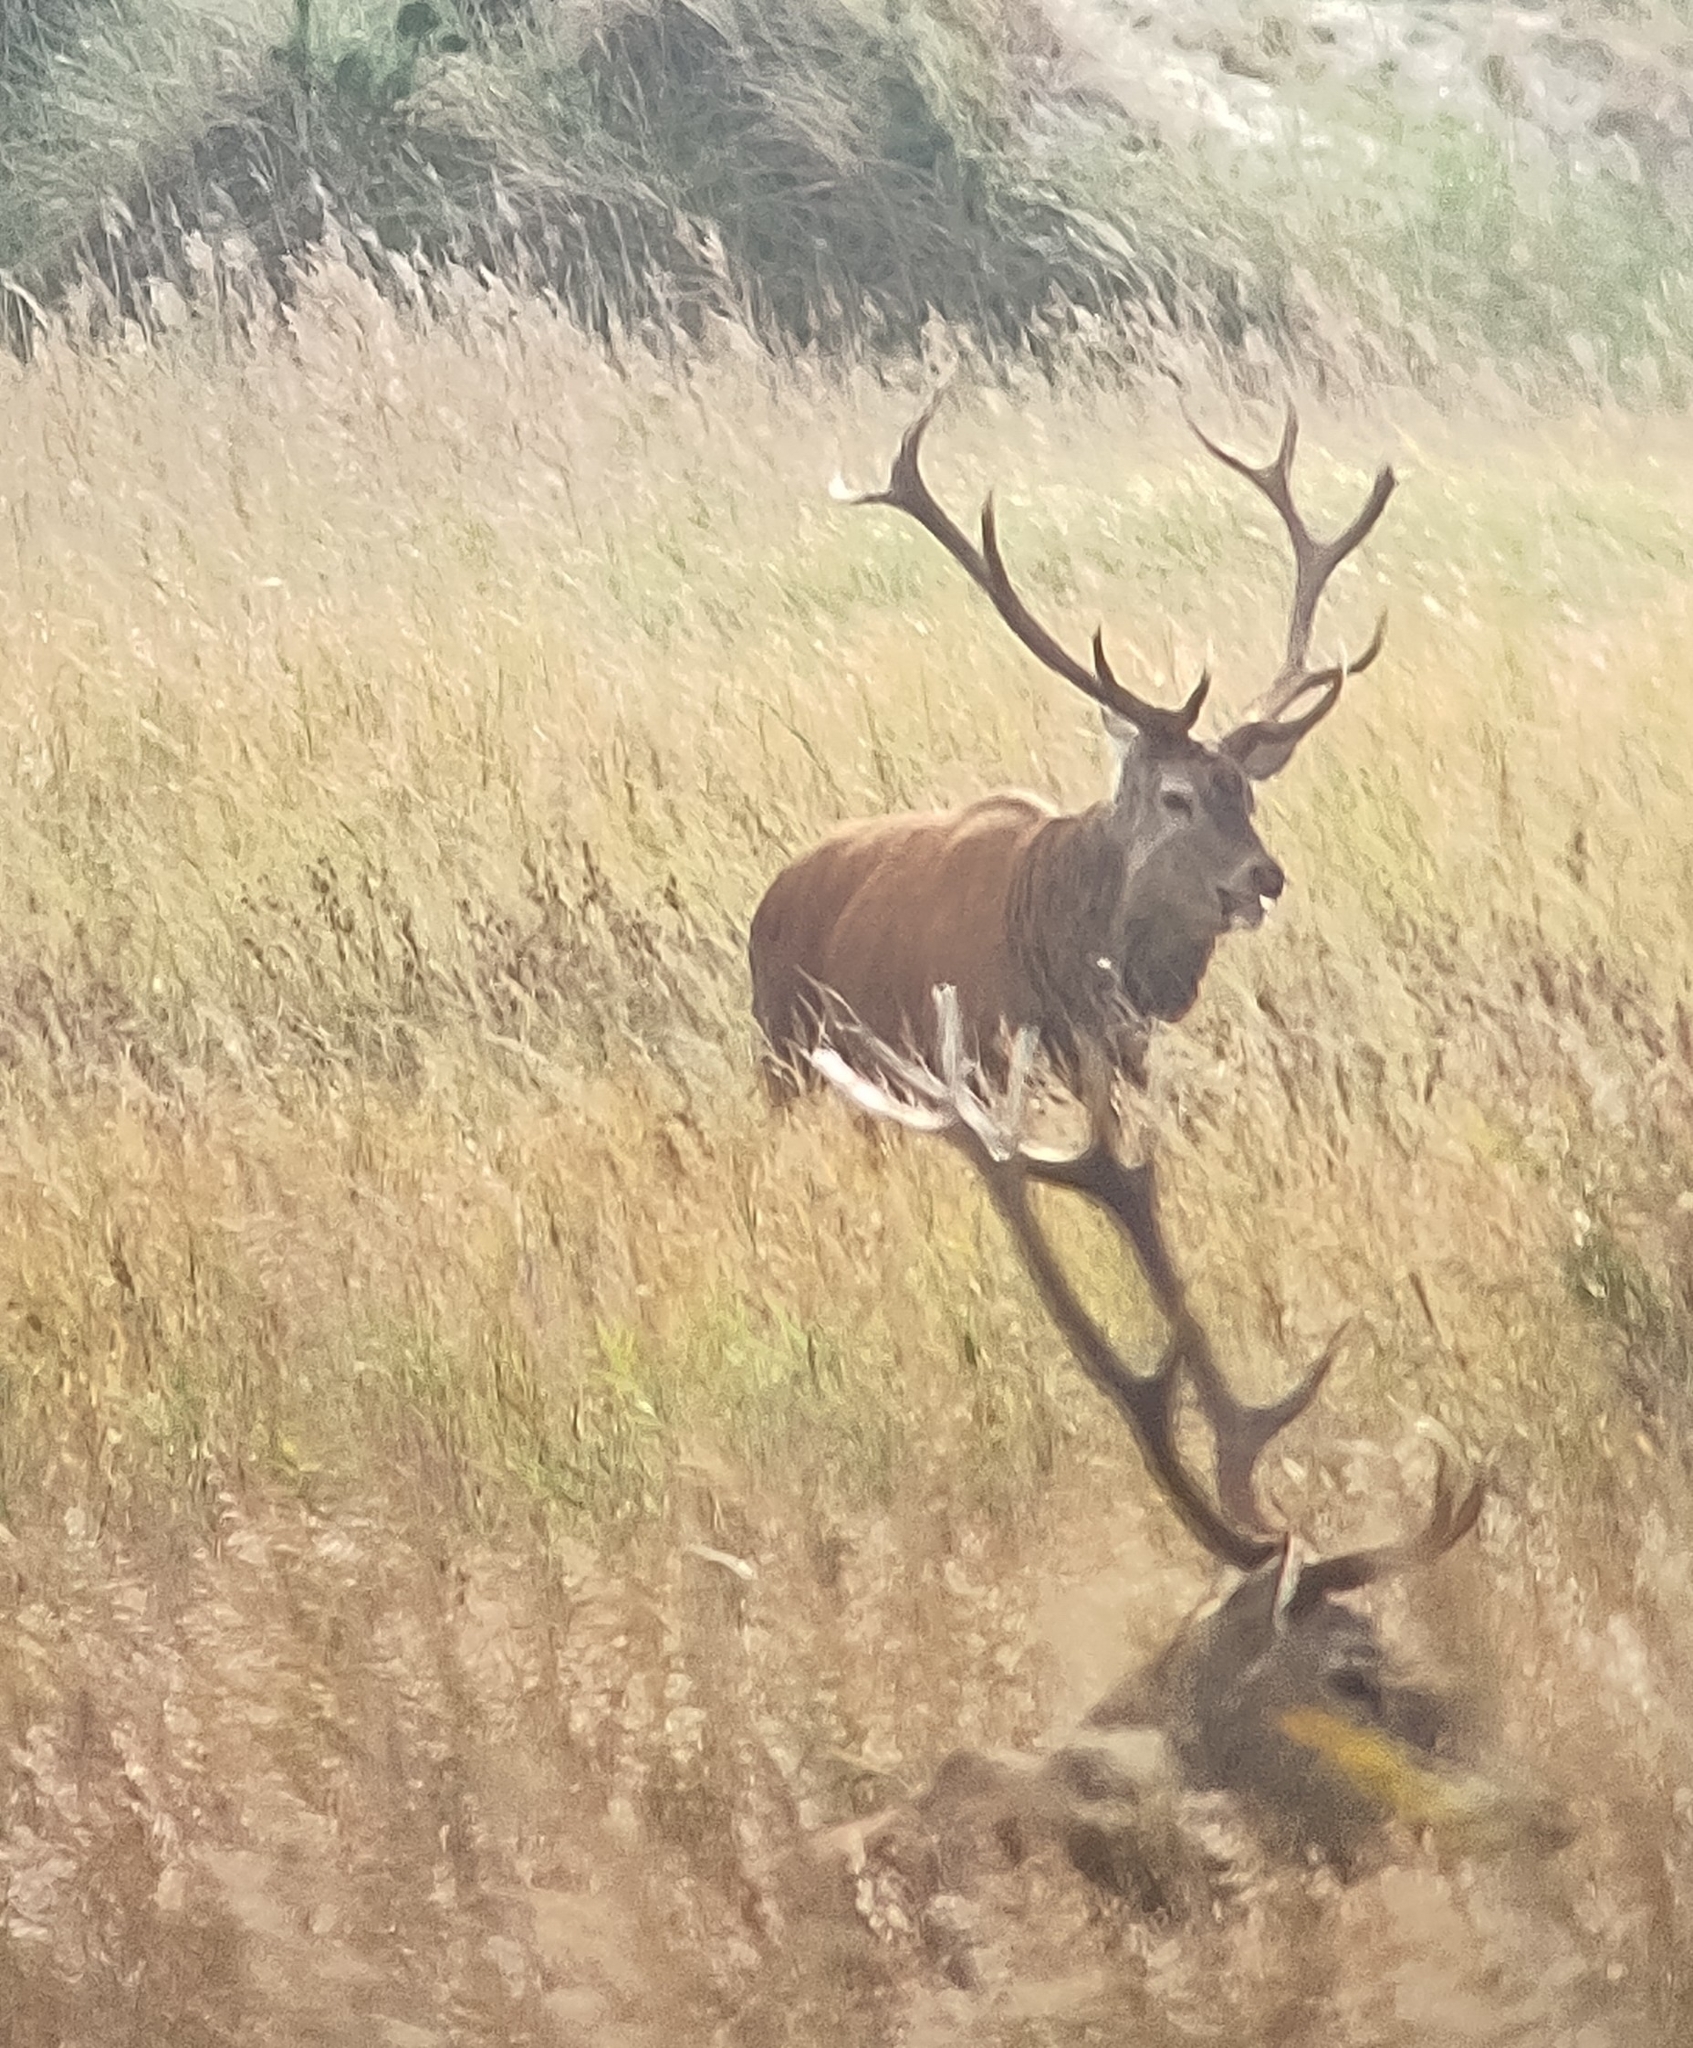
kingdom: Animalia
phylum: Chordata
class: Mammalia
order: Artiodactyla
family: Cervidae
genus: Cervus
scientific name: Cervus elaphus
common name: Red deer
